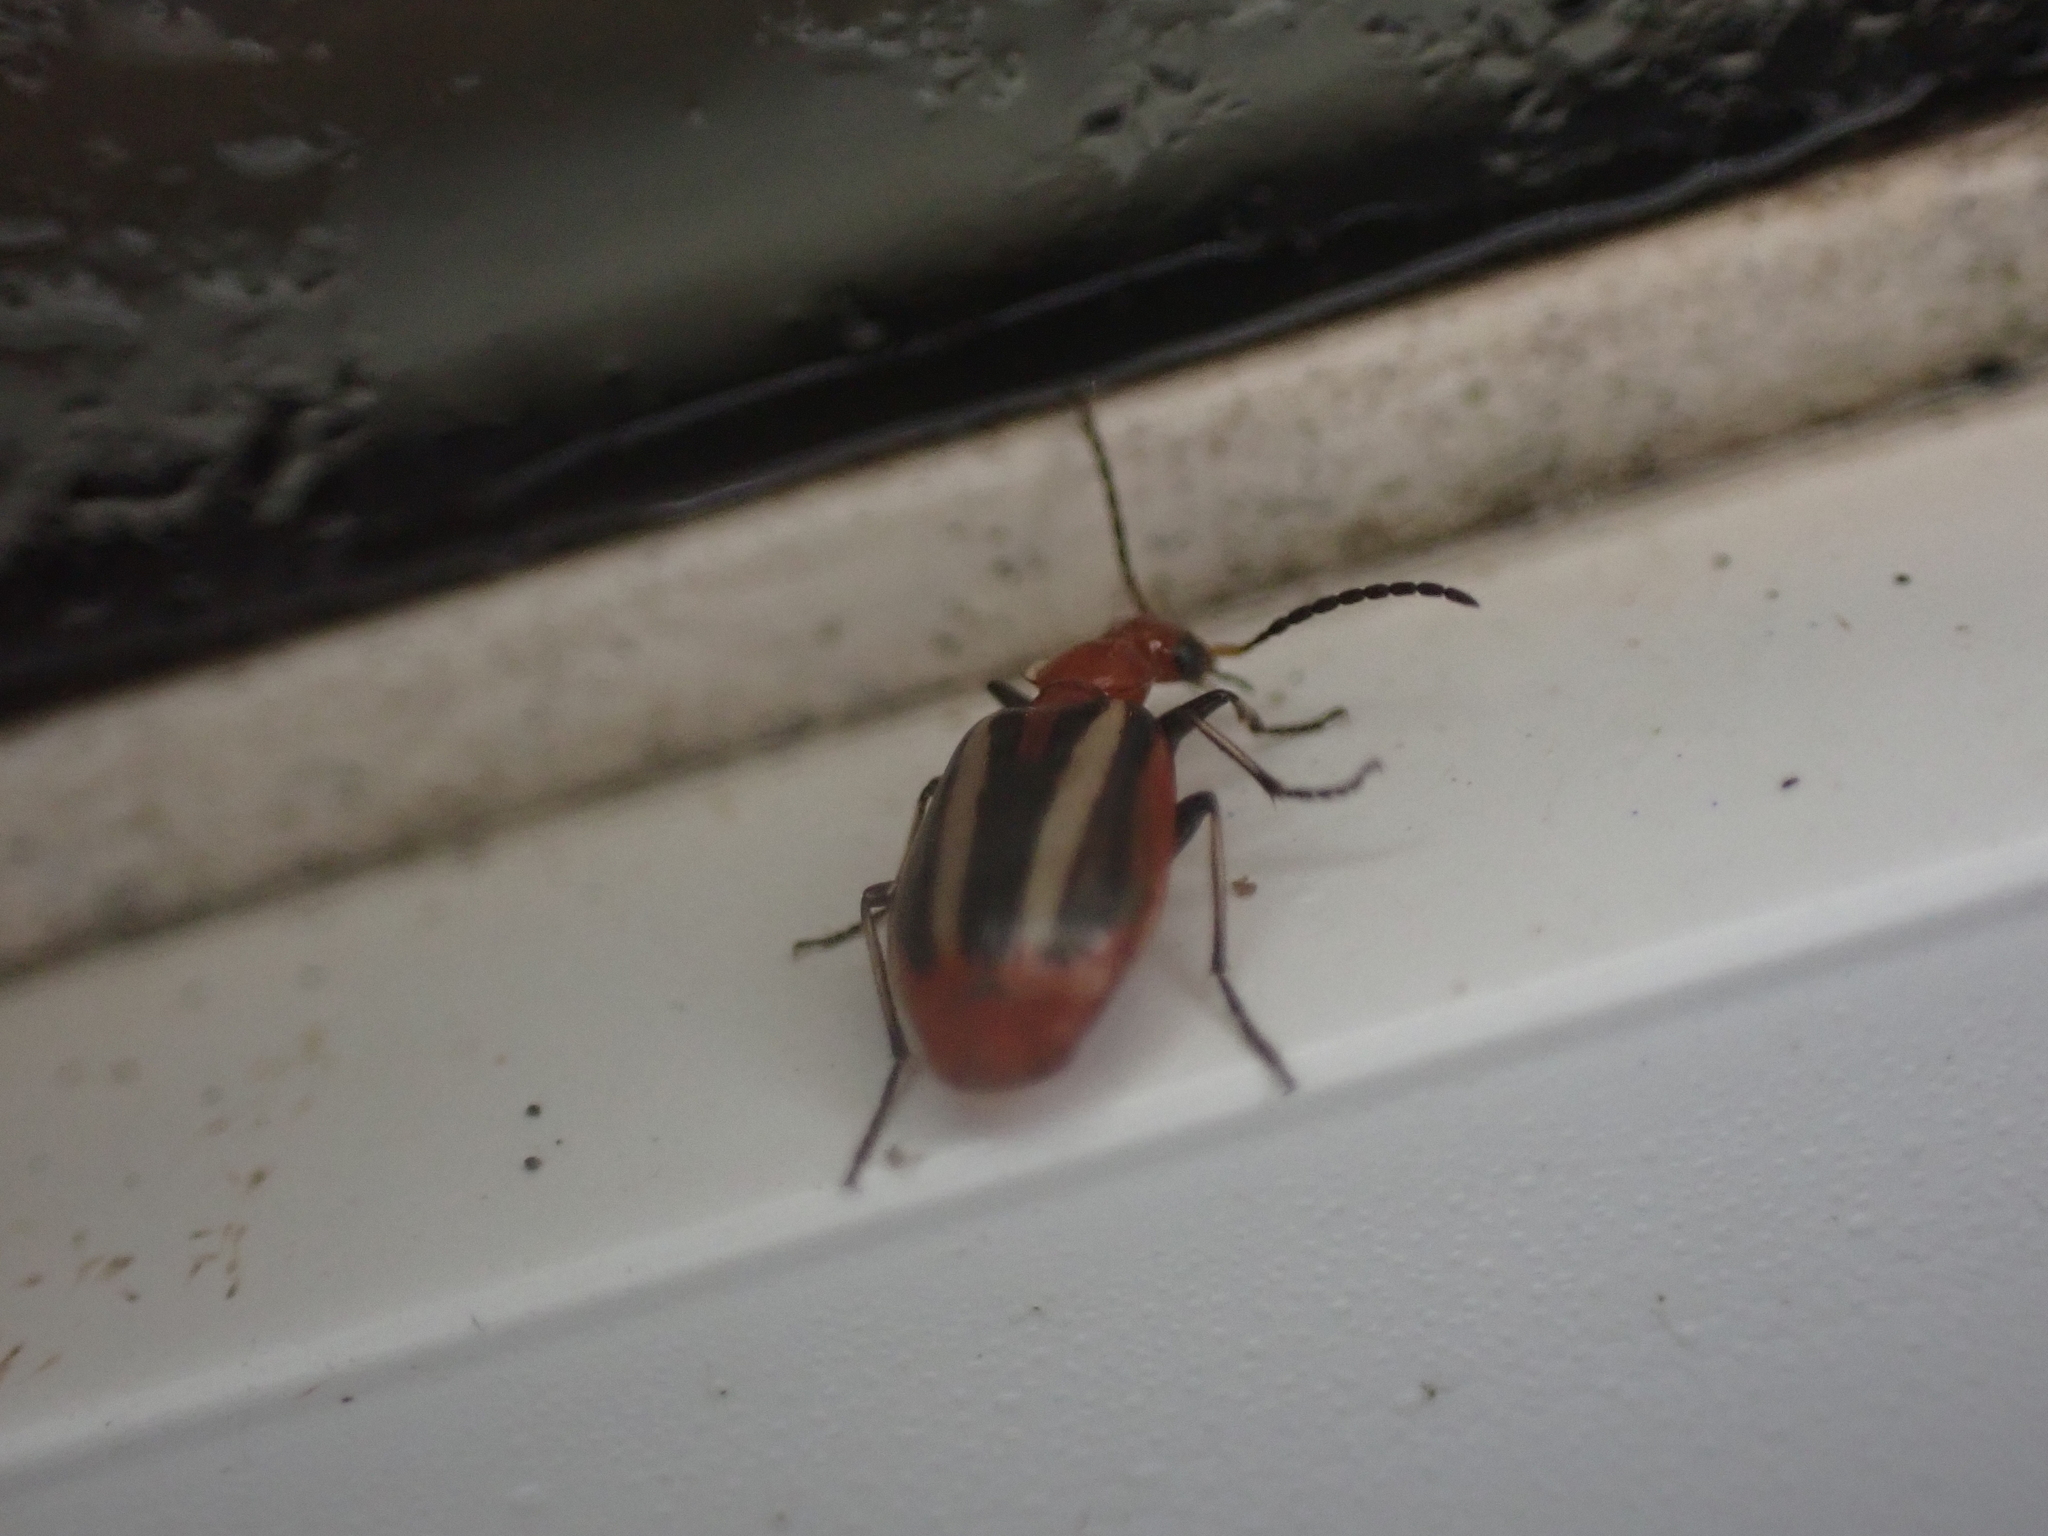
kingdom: Animalia
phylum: Arthropoda
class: Insecta
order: Coleoptera
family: Carabidae
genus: Lebia
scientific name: Lebia vittata
